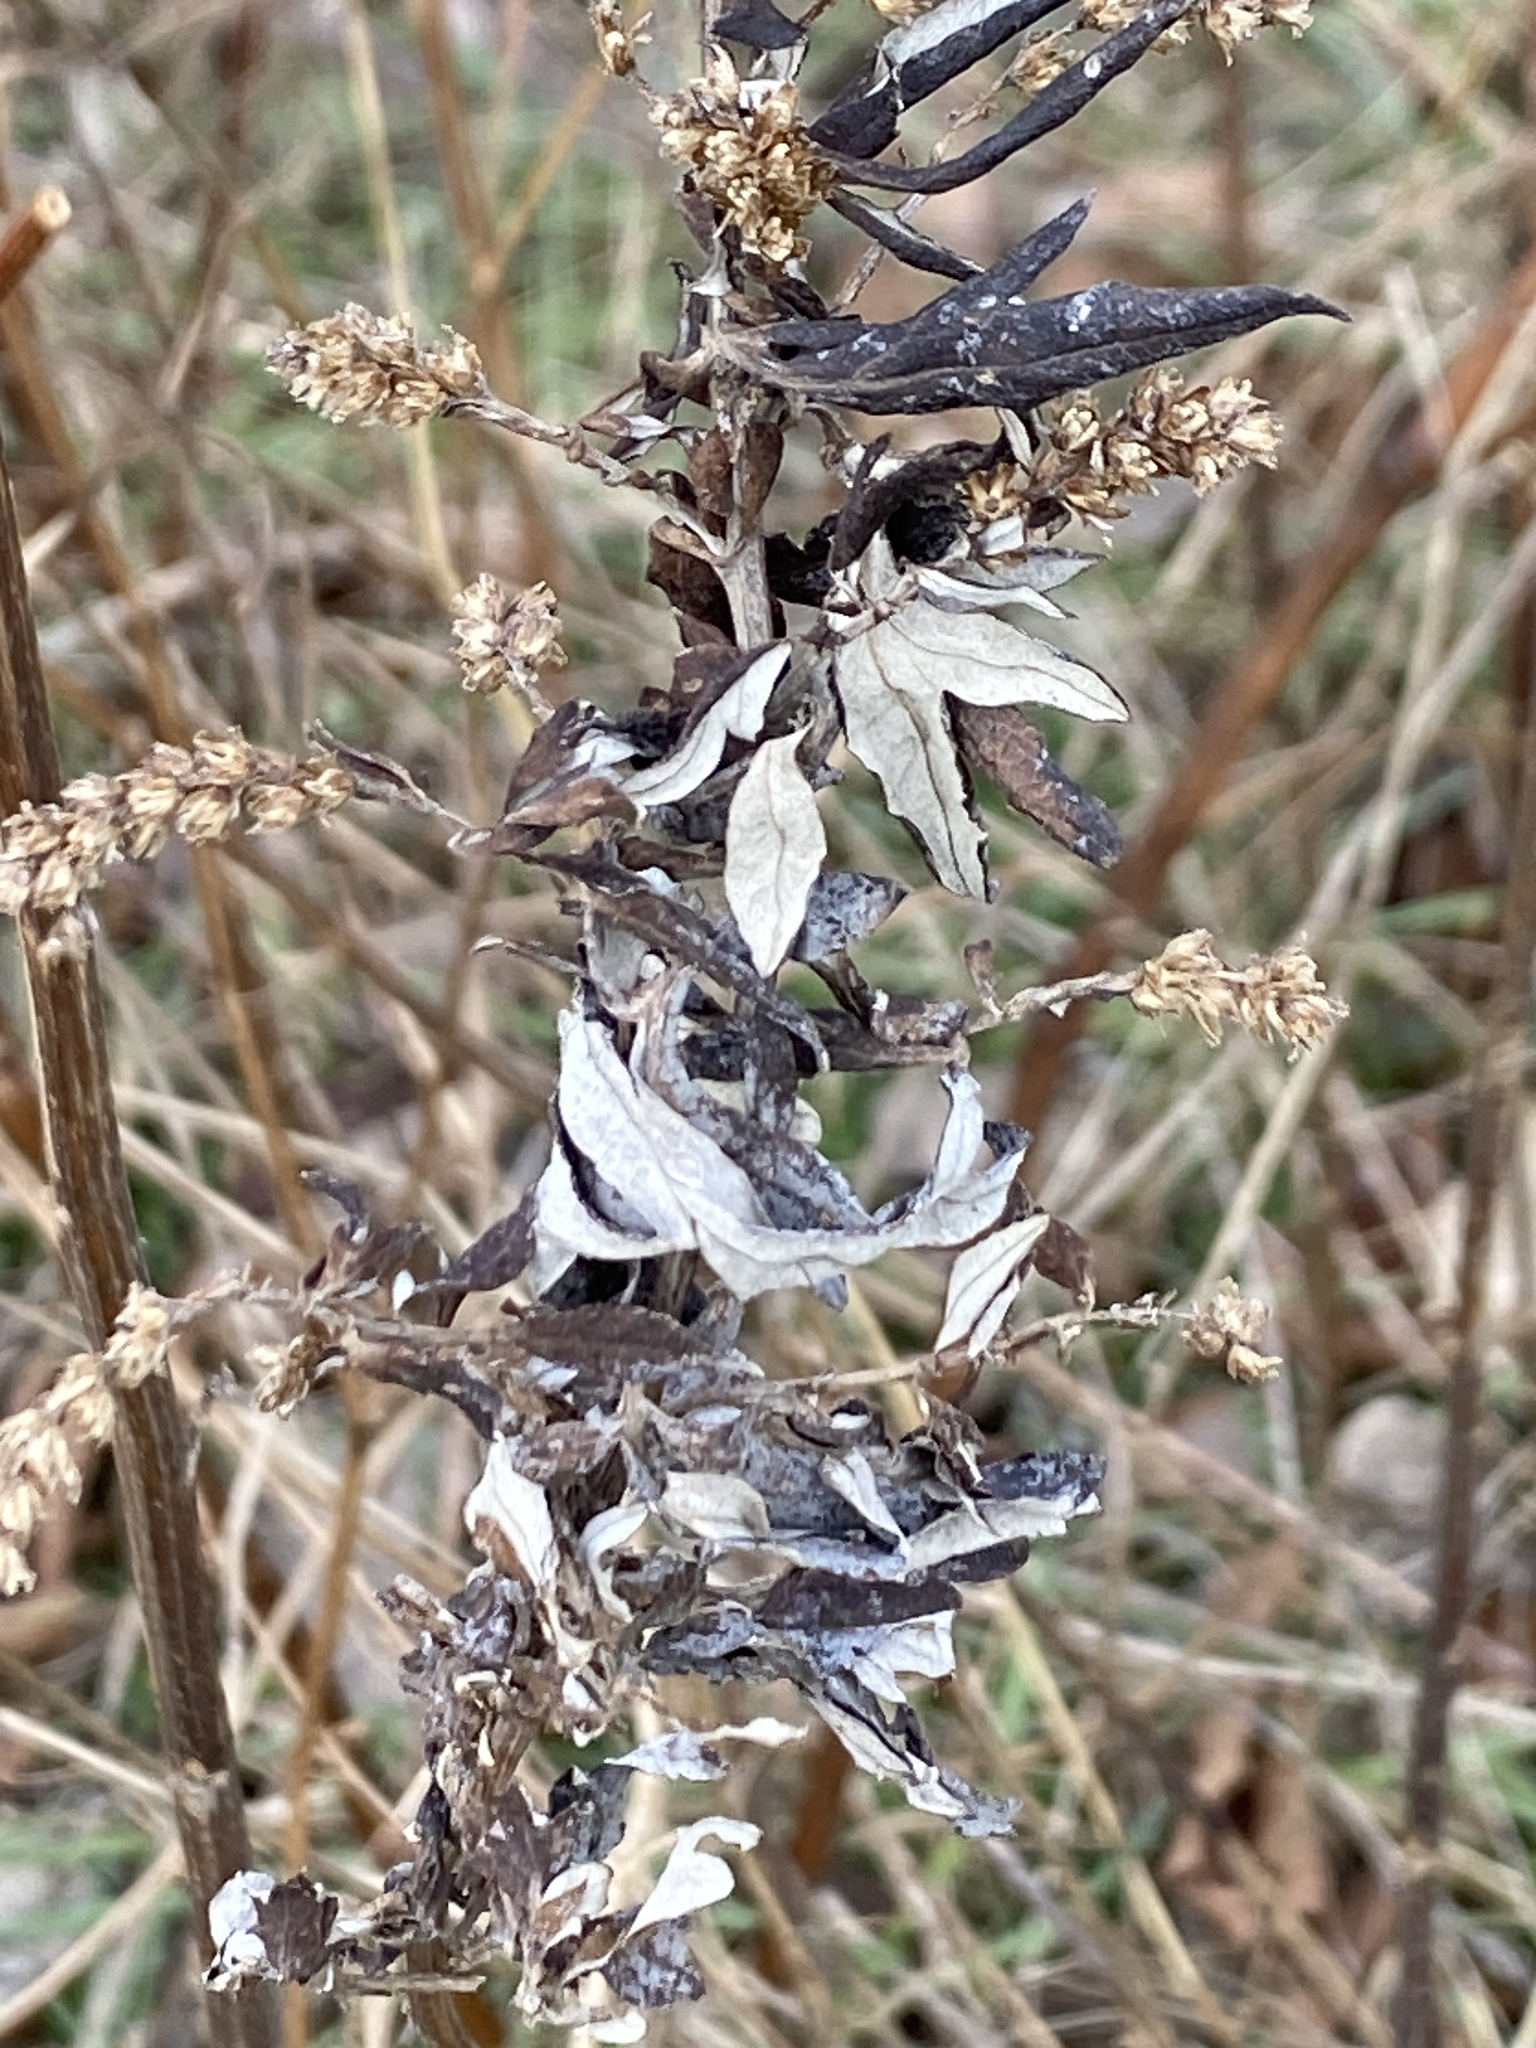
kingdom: Plantae
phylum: Tracheophyta
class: Magnoliopsida
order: Asterales
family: Asteraceae
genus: Artemisia
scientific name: Artemisia vulgaris
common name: Mugwort
